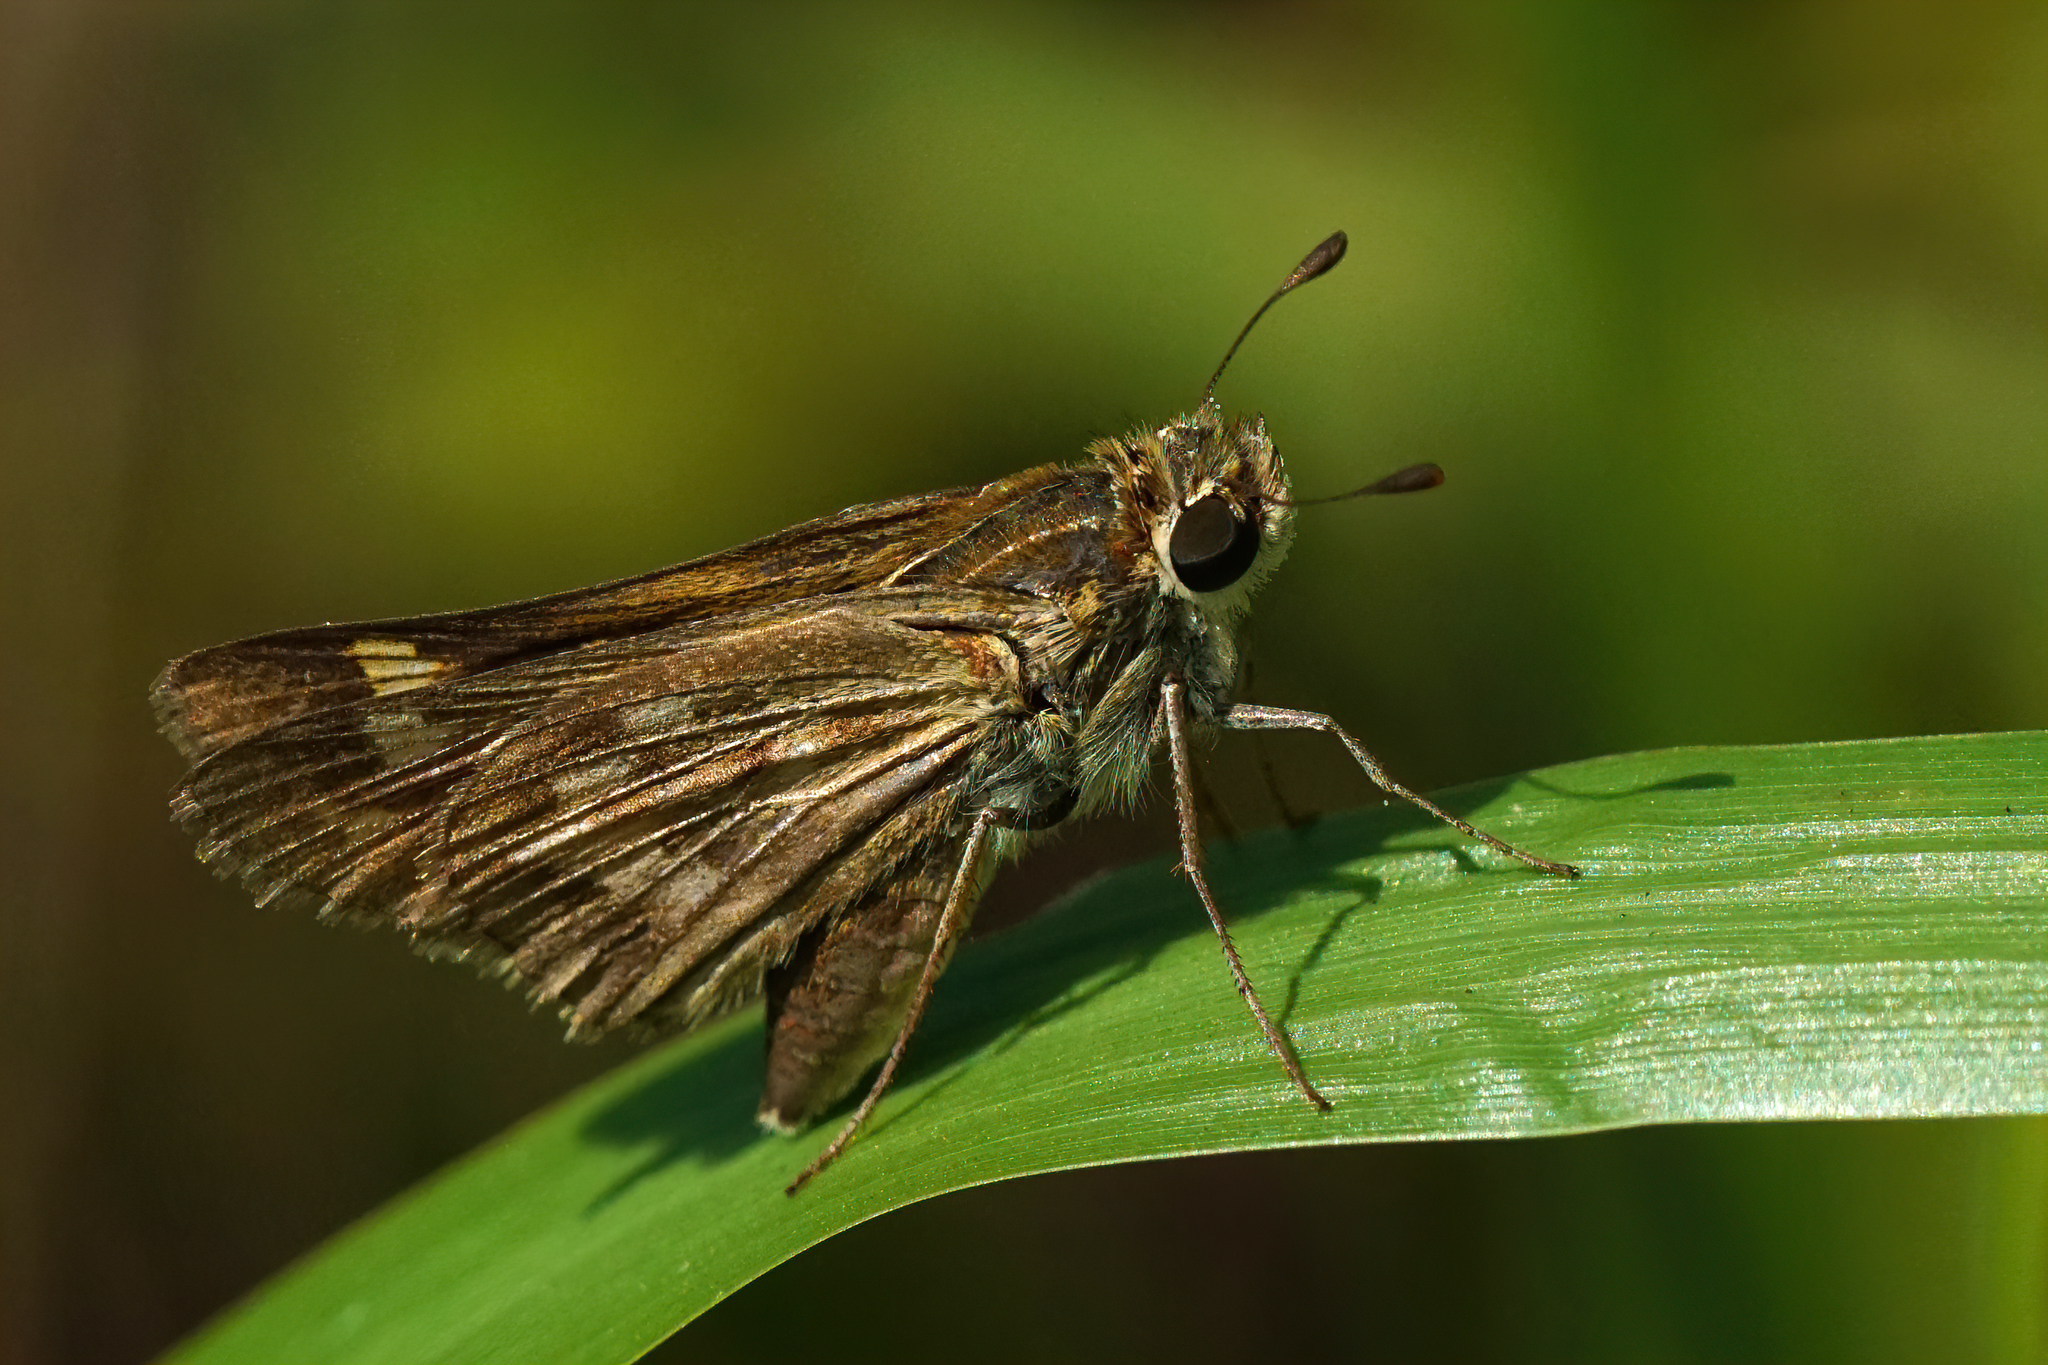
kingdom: Animalia
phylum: Arthropoda
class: Insecta
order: Lepidoptera
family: Hesperiidae
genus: Hylephila
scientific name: Hylephila phyleus
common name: Fiery skipper
